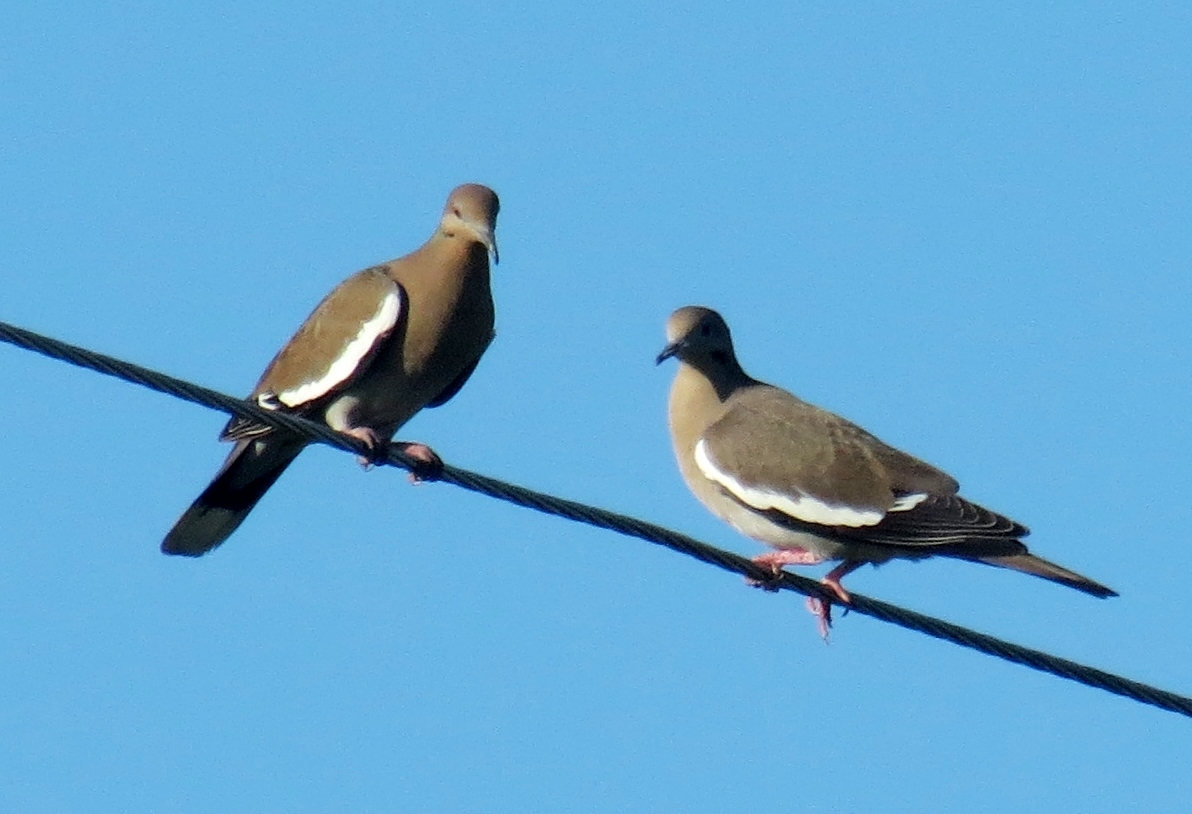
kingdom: Animalia
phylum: Chordata
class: Aves
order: Columbiformes
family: Columbidae
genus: Zenaida
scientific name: Zenaida asiatica
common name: White-winged dove
